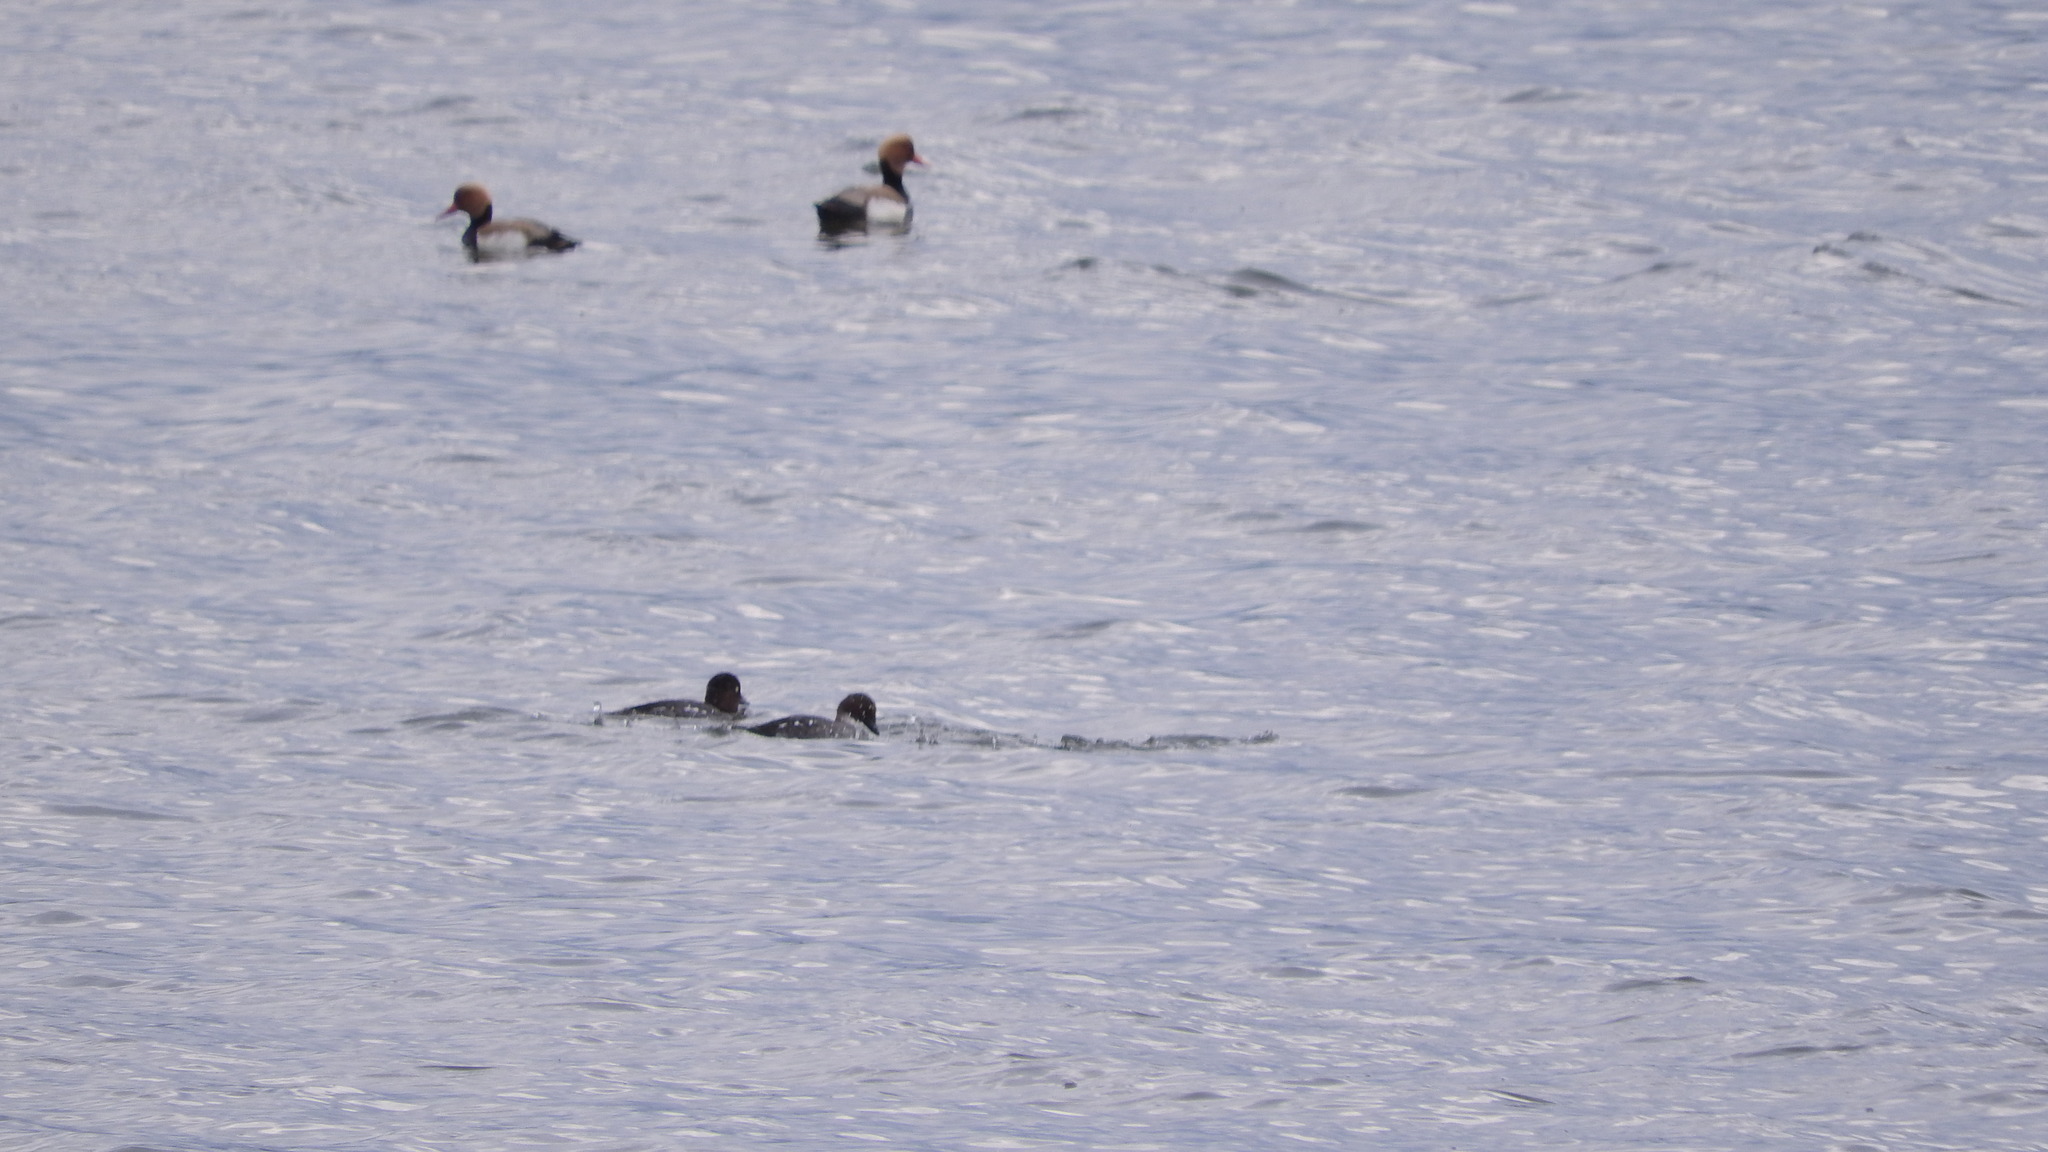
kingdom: Animalia
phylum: Chordata
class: Aves
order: Anseriformes
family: Anatidae
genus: Bucephala
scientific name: Bucephala clangula
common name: Common goldeneye
